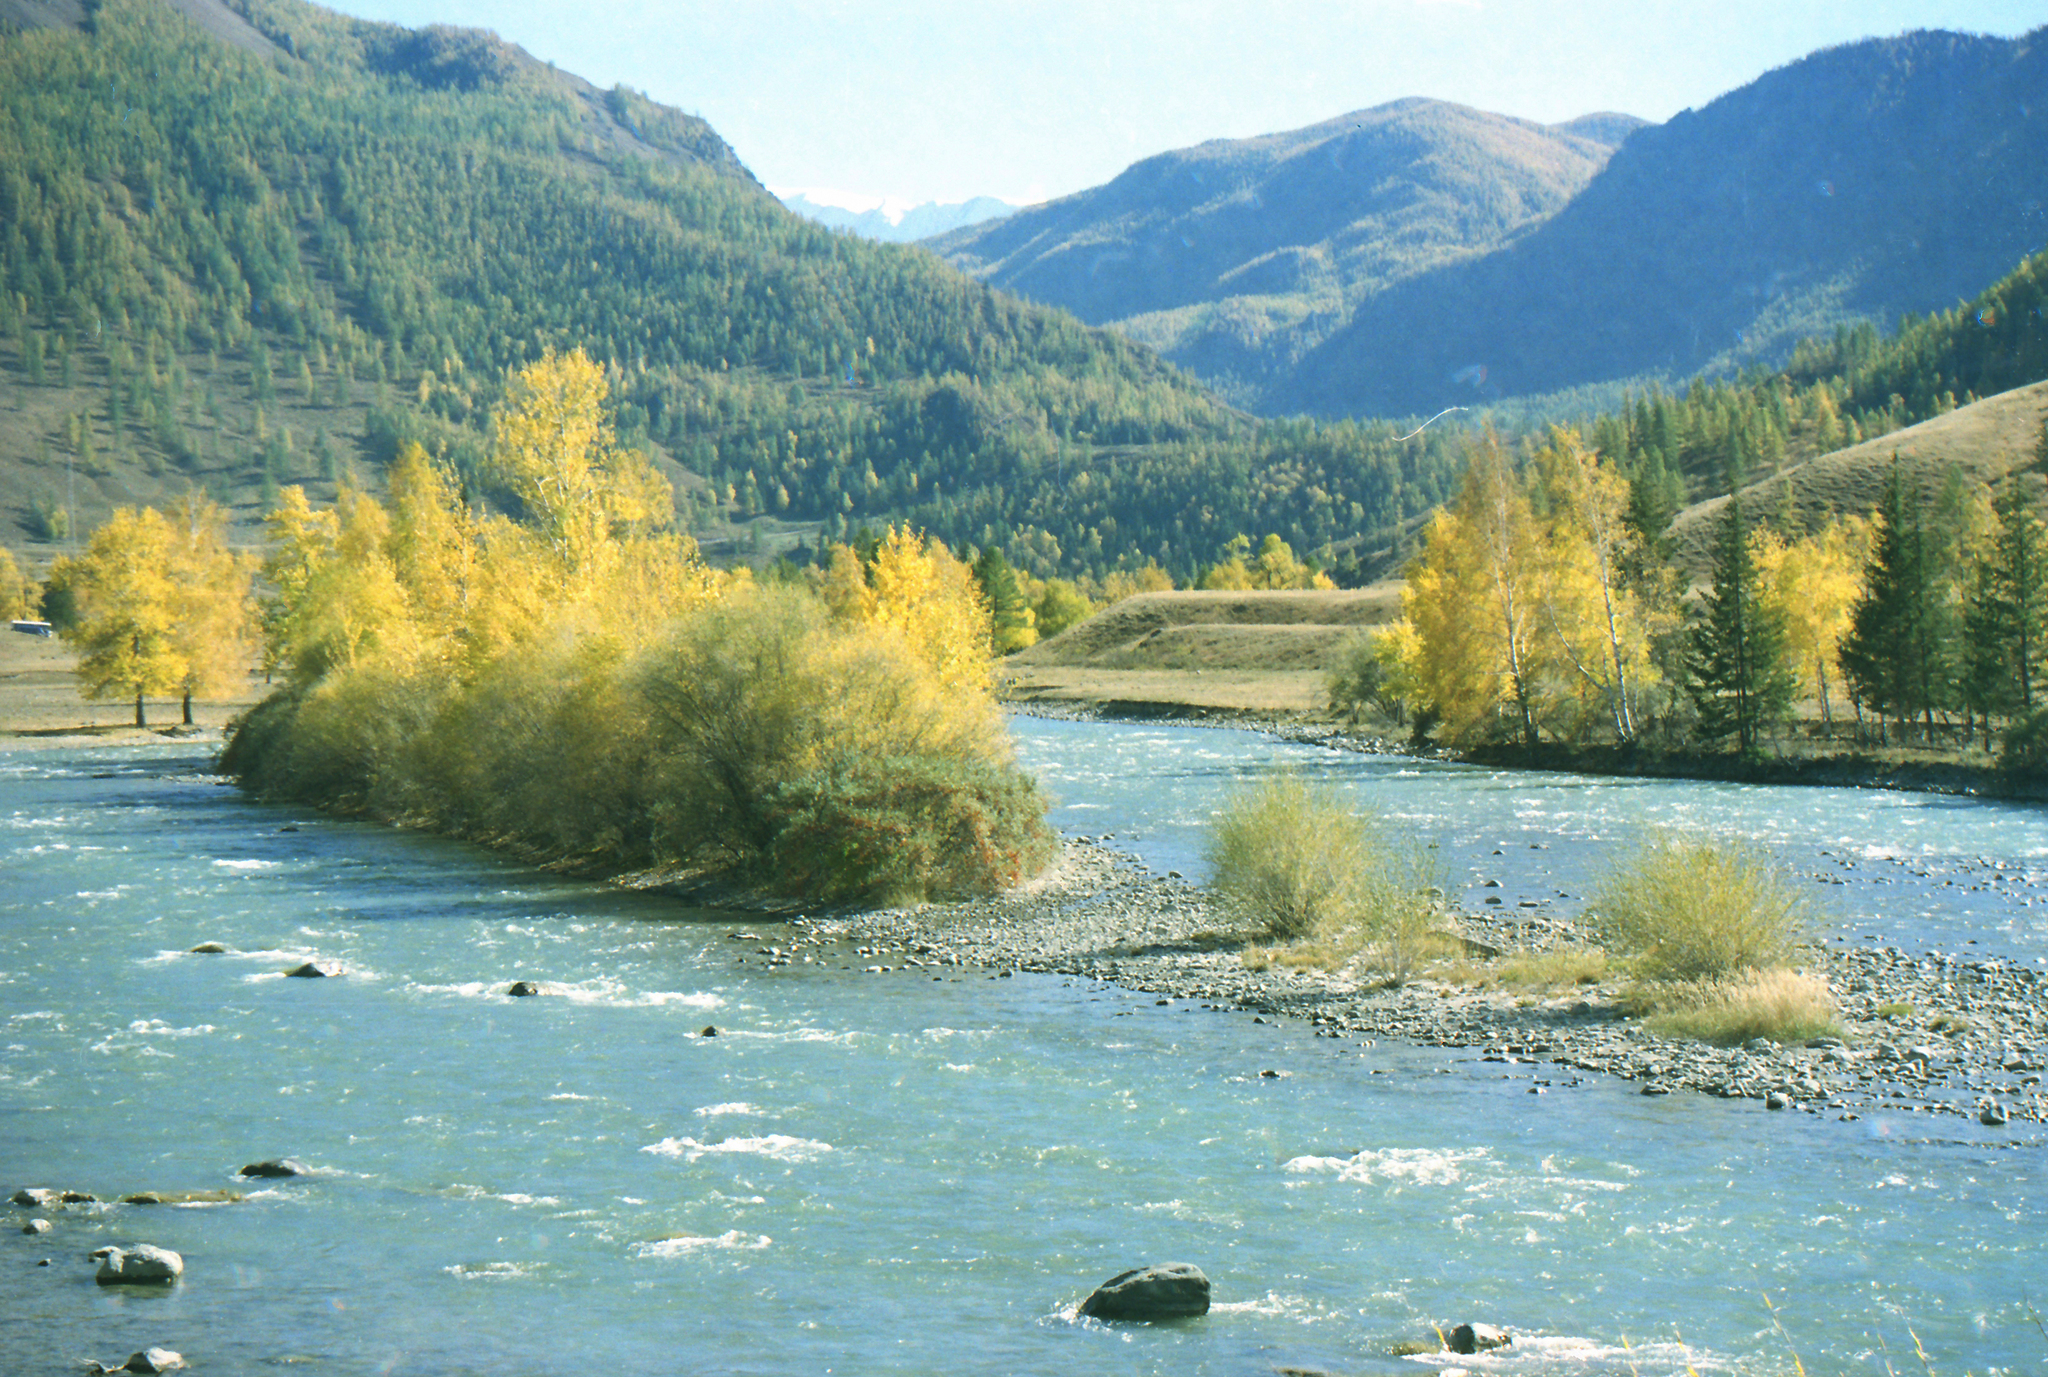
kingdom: Plantae
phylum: Tracheophyta
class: Pinopsida
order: Pinales
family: Pinaceae
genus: Picea
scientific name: Picea obovata
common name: Siberian spruce
